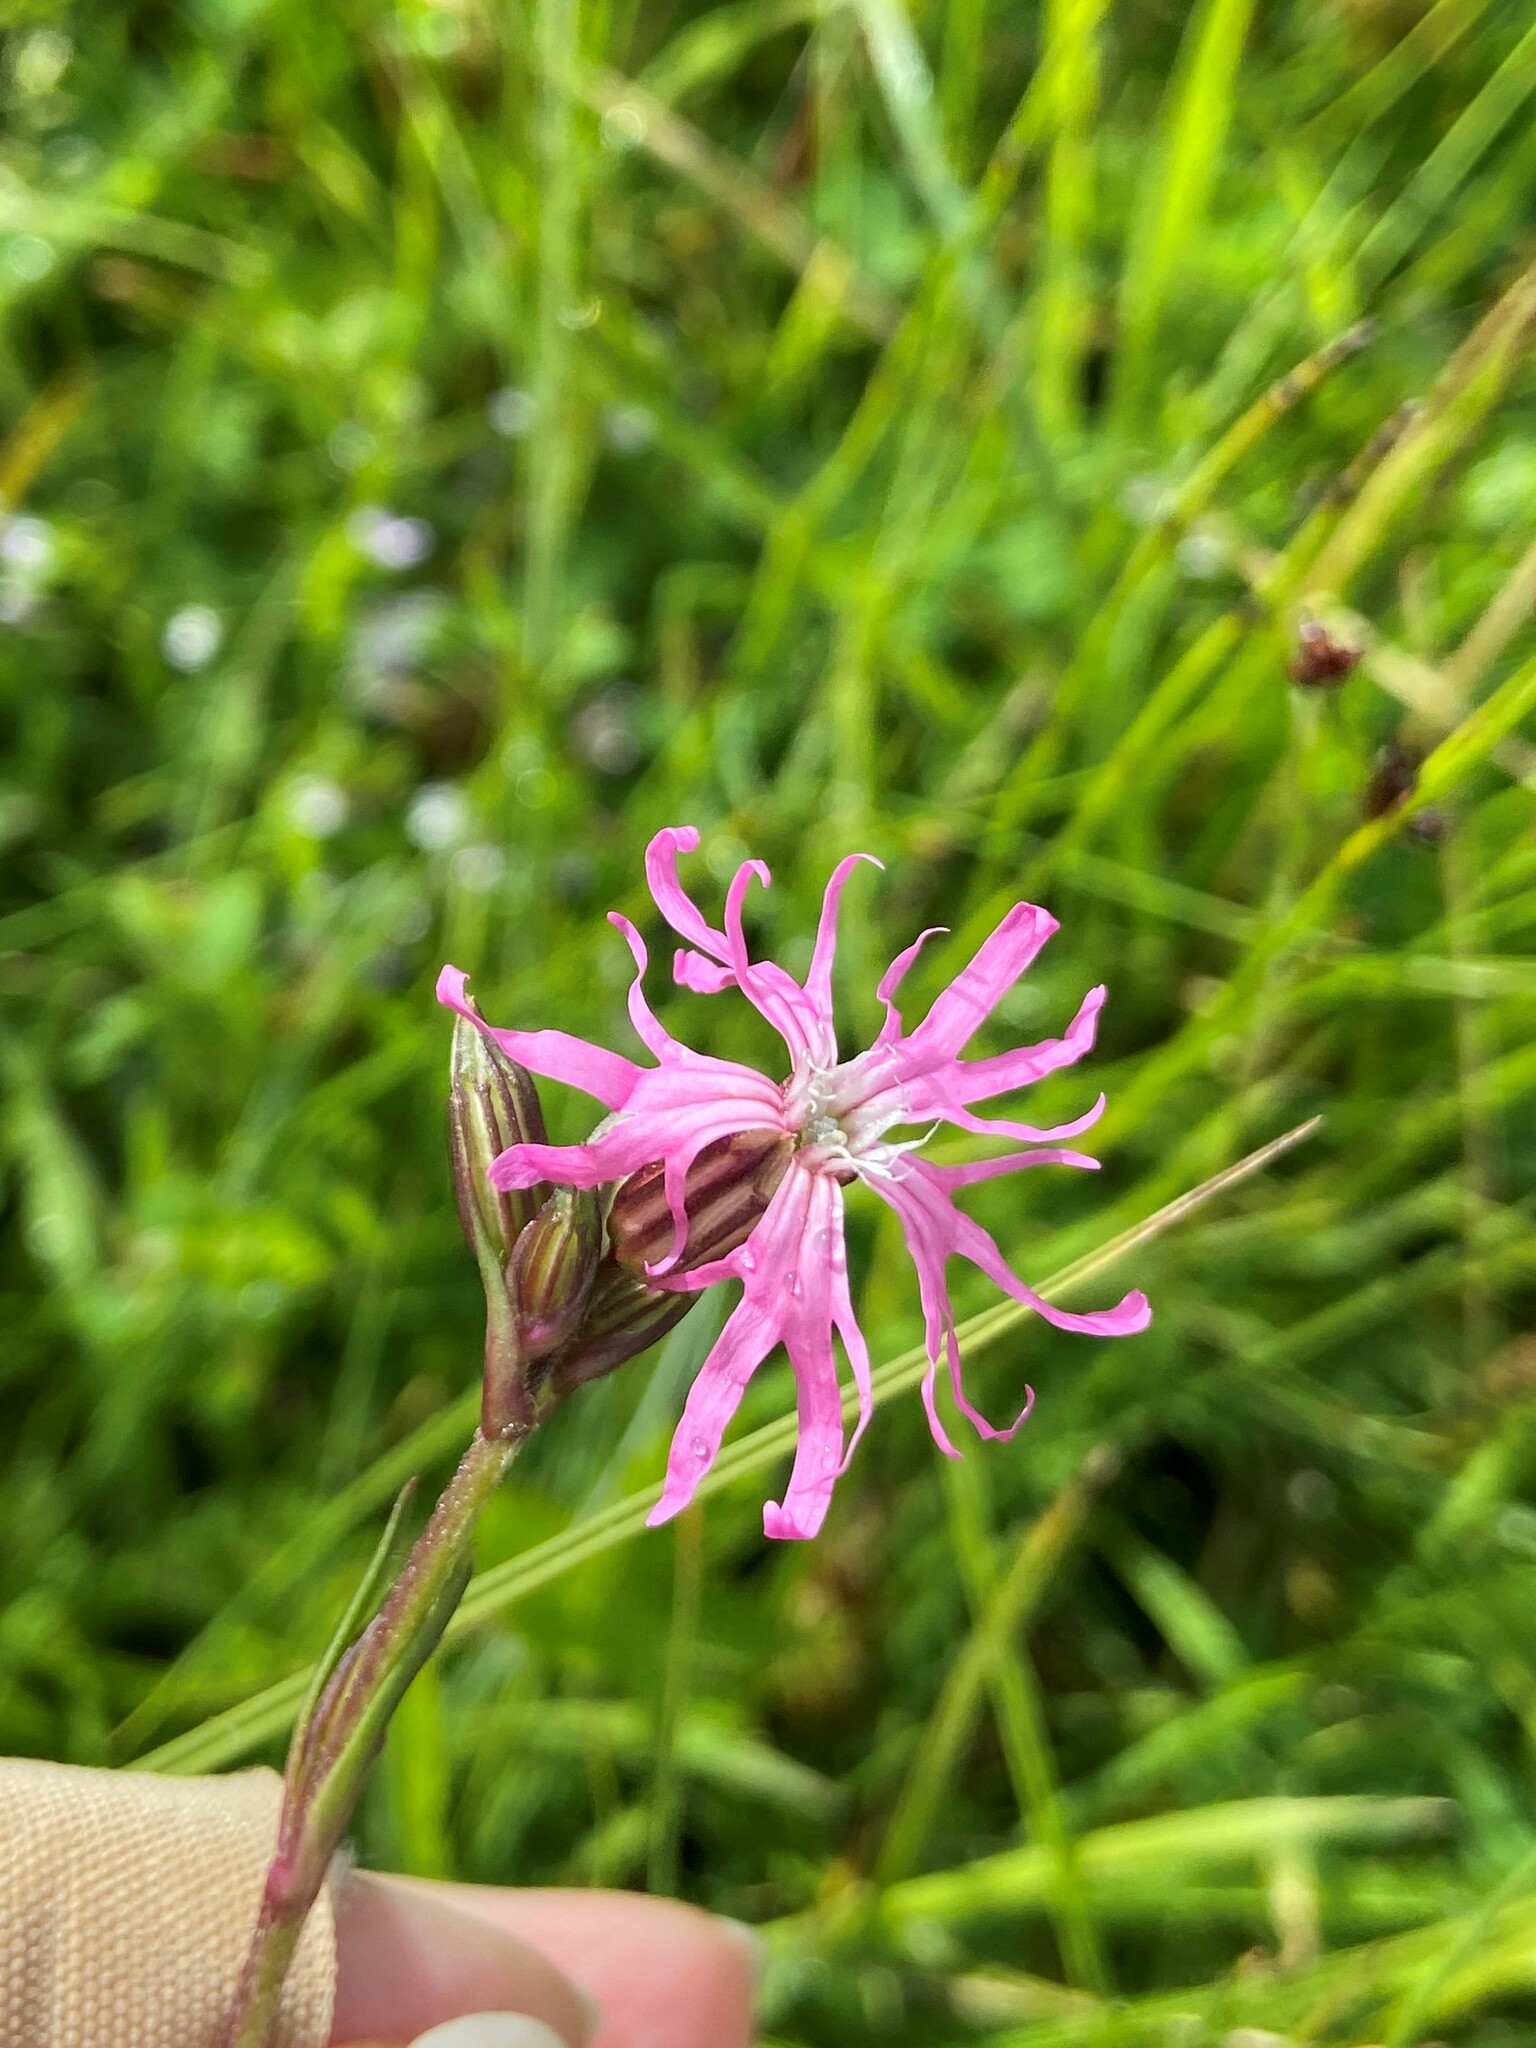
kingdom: Plantae
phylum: Tracheophyta
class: Magnoliopsida
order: Caryophyllales
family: Caryophyllaceae
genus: Silene
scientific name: Silene flos-cuculi
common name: Ragged-robin
